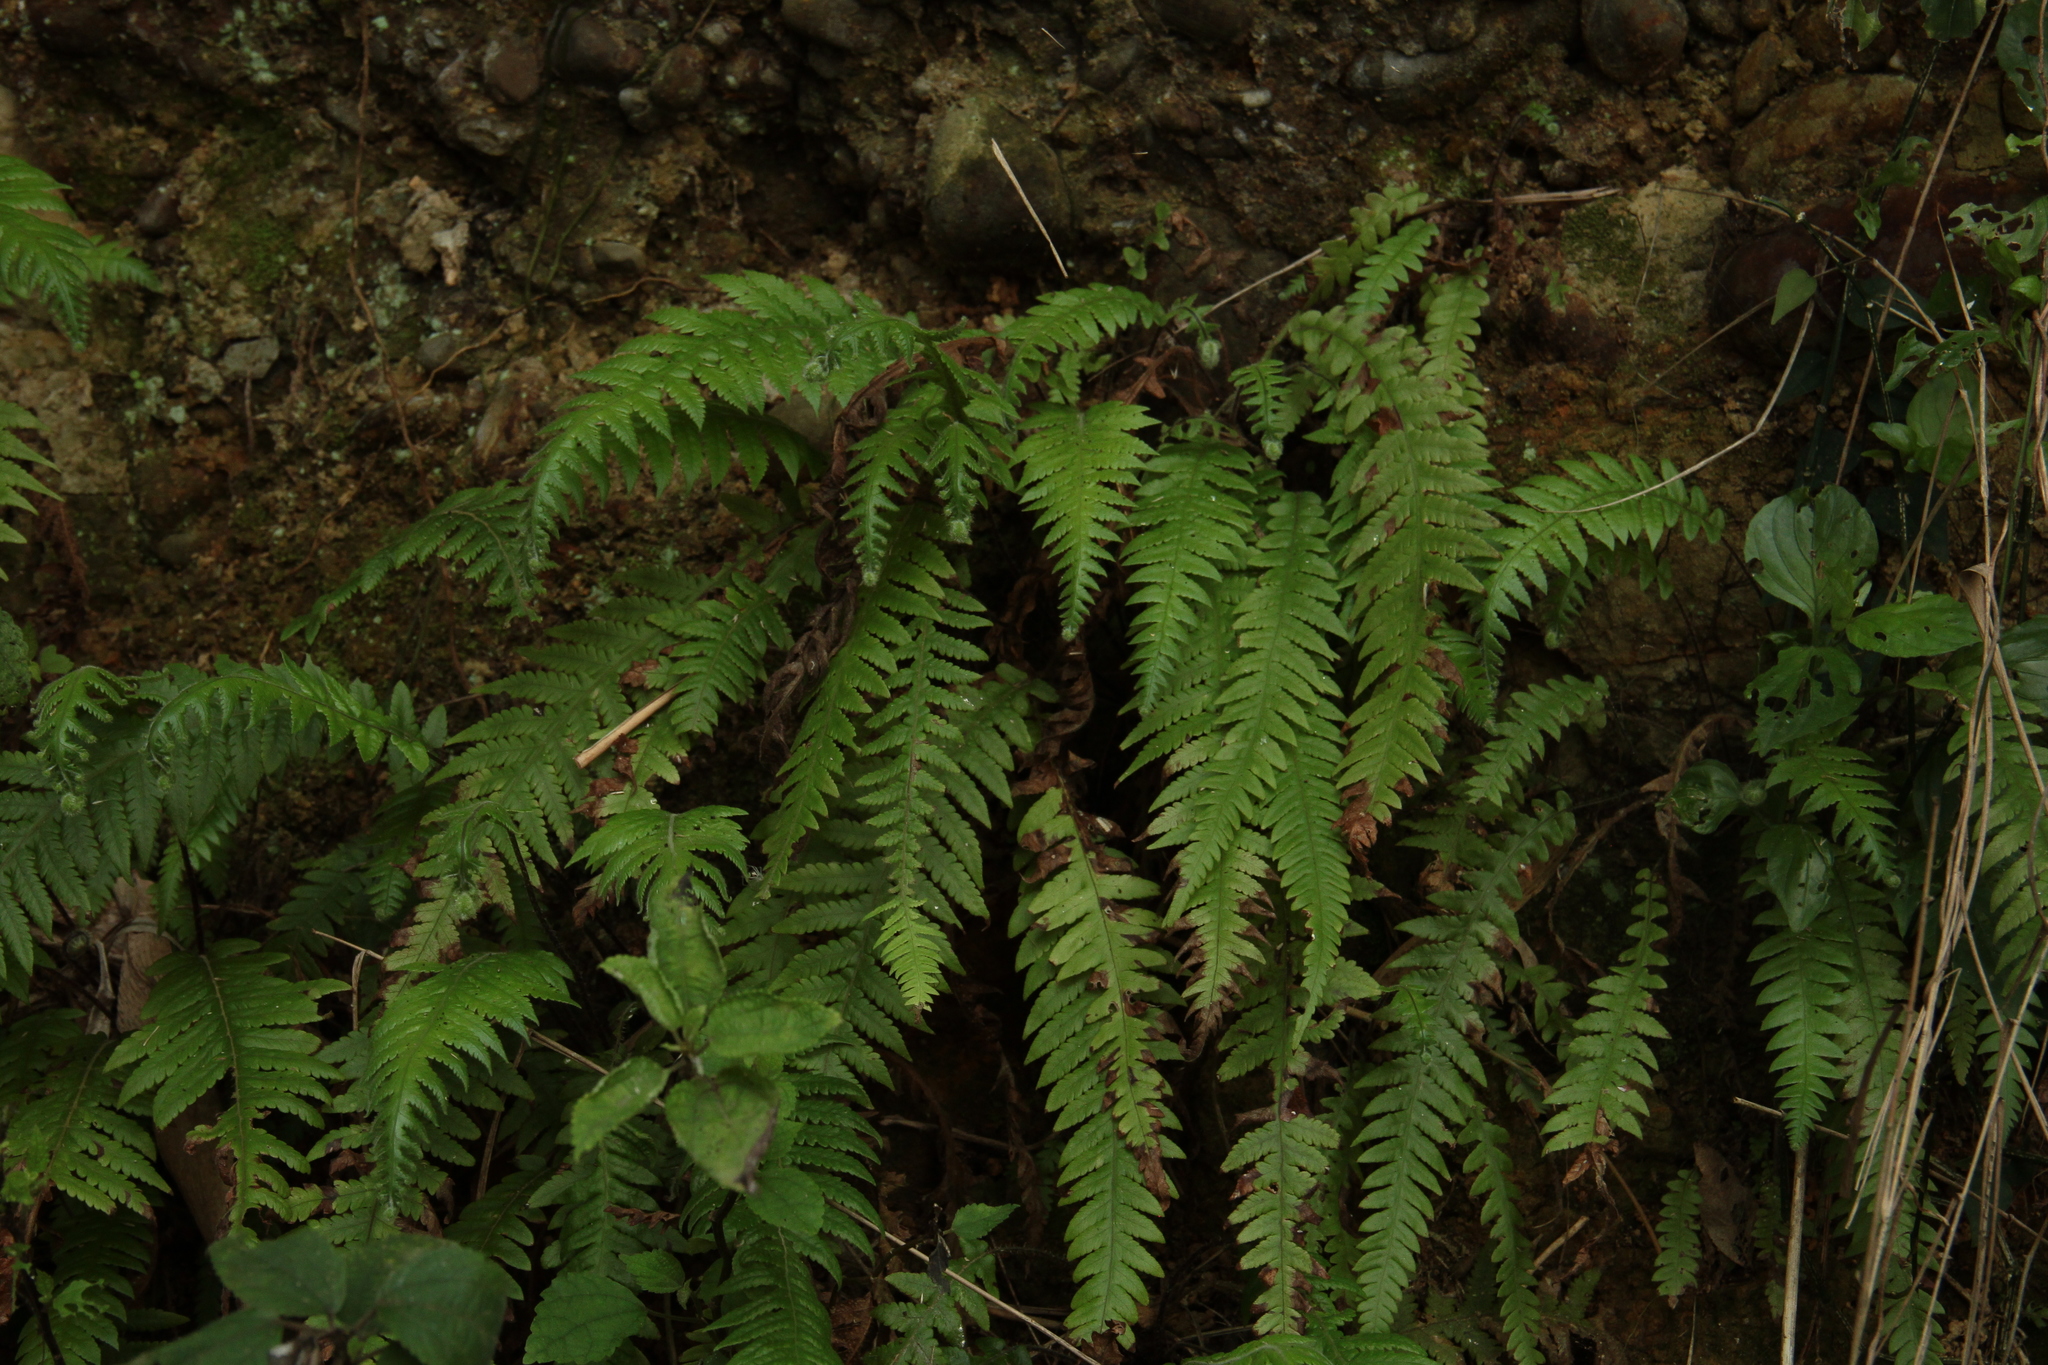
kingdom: Plantae
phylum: Tracheophyta
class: Polypodiopsida
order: Polypodiales
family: Thelypteridaceae
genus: Phegopteris
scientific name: Phegopteris decursive-pinnata
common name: Japanese beech fern
